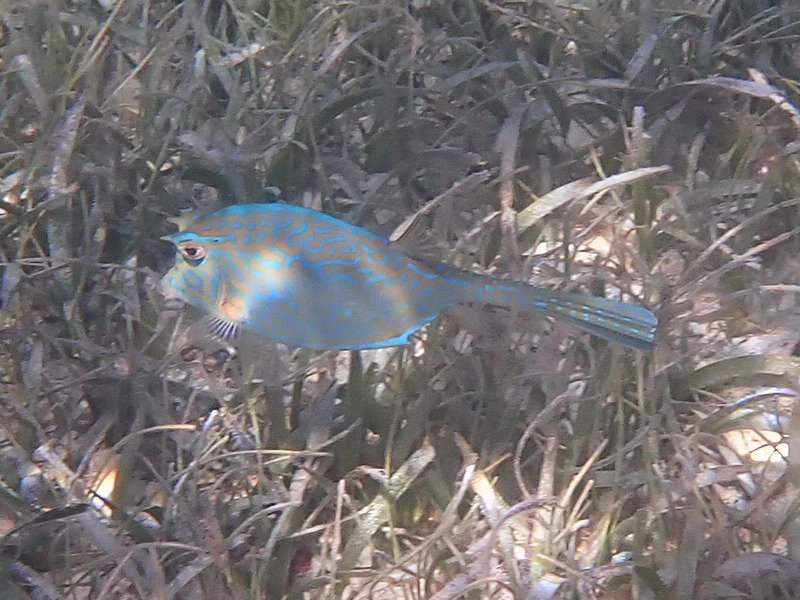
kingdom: Animalia
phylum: Chordata
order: Tetraodontiformes
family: Ostraciidae
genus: Acanthostracion
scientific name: Acanthostracion quadricornis
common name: Scrawled cowfish
